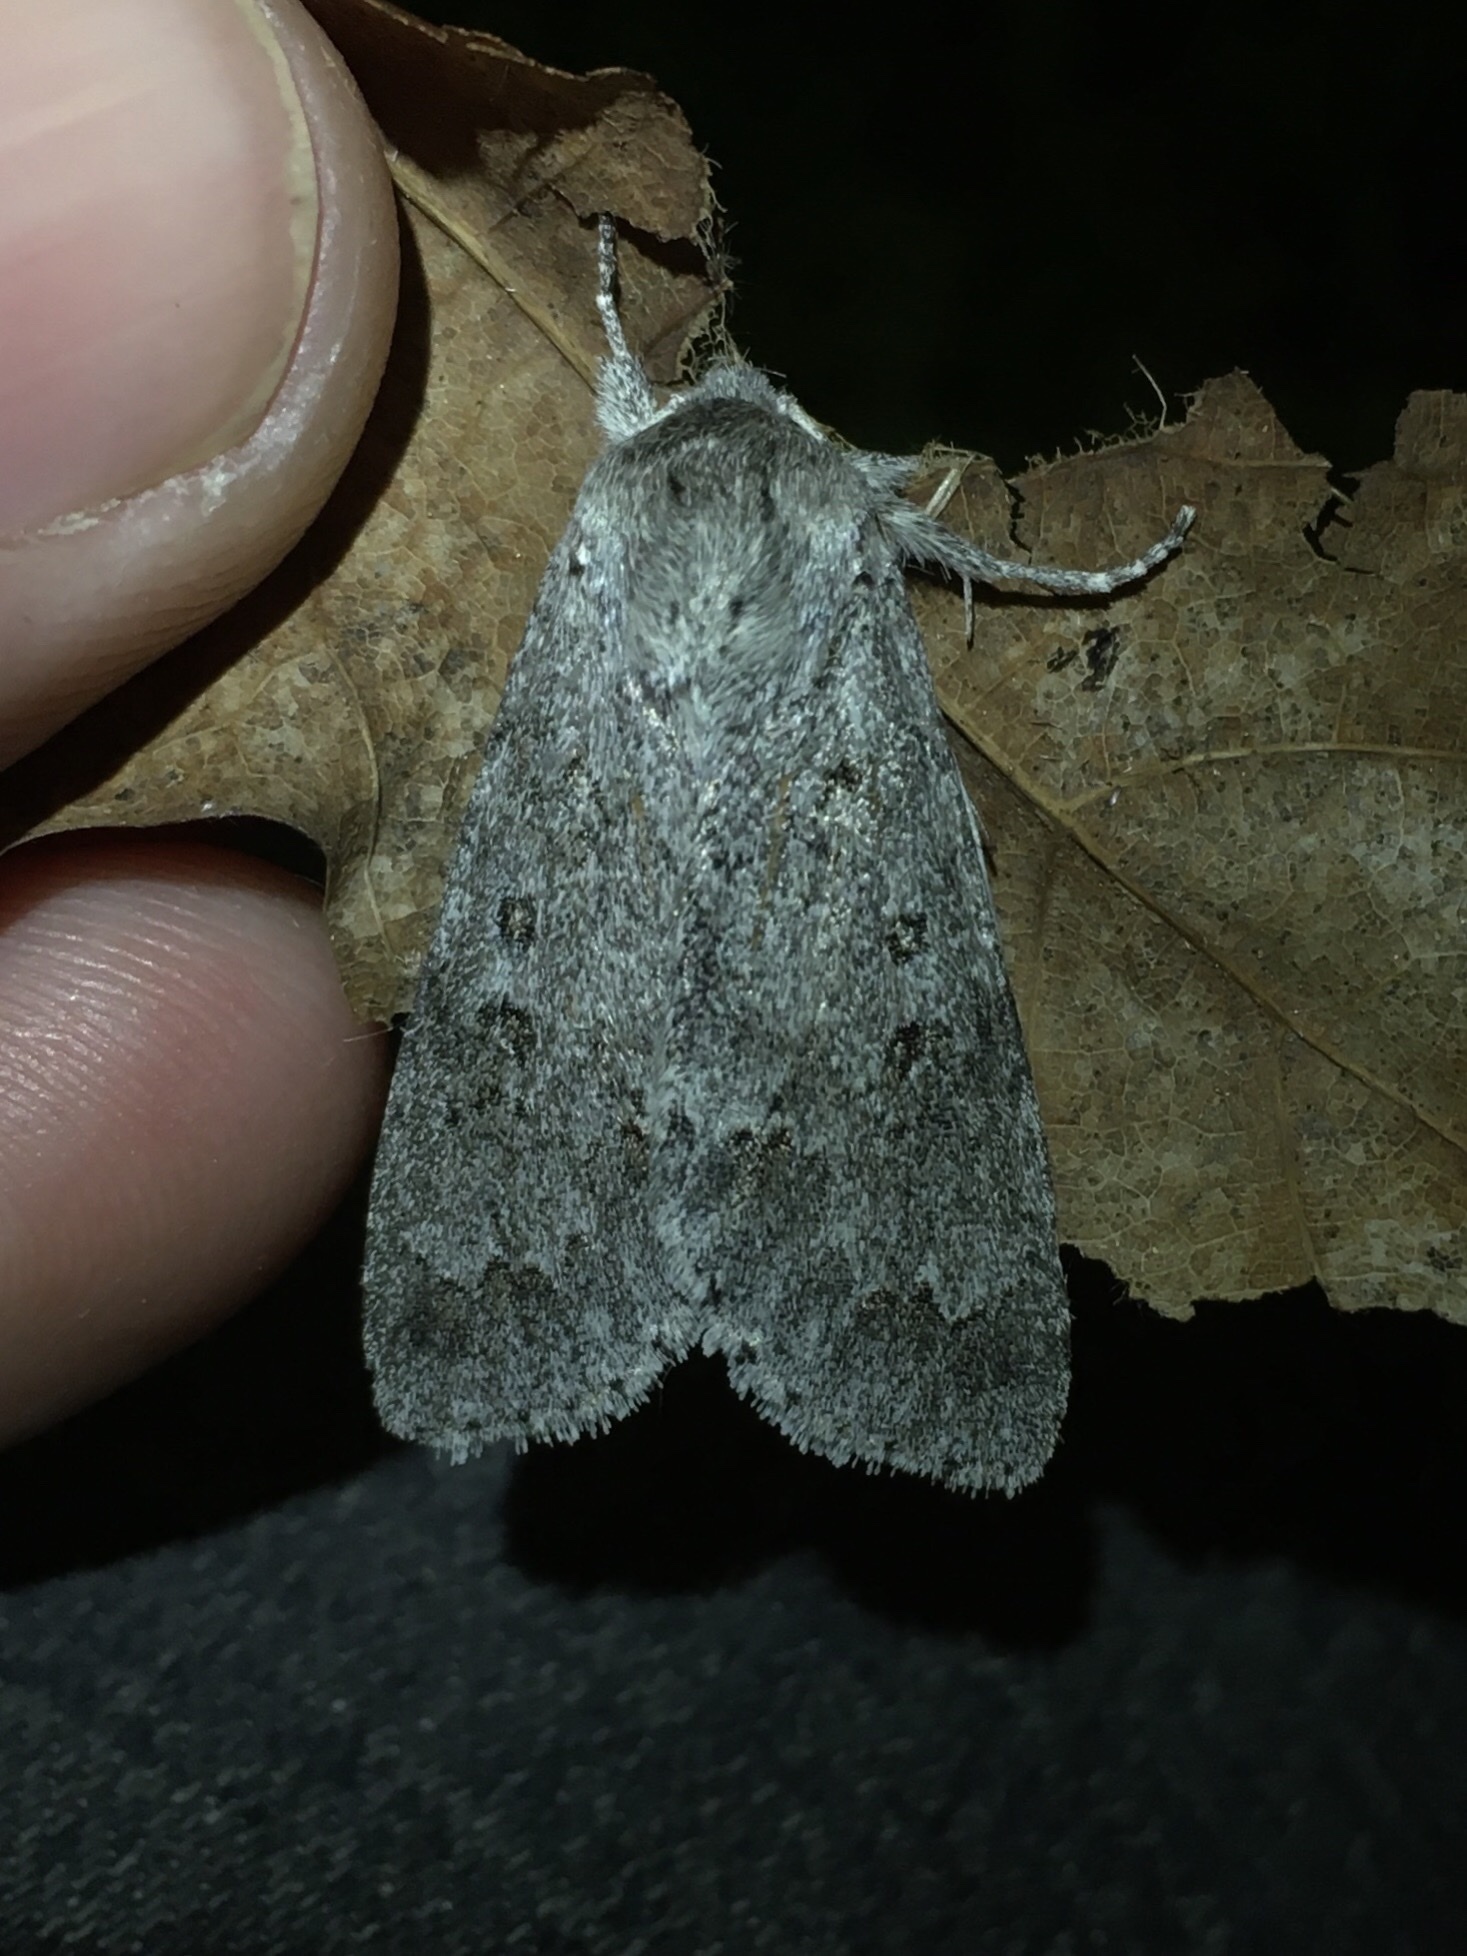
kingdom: Animalia
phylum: Arthropoda
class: Insecta
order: Lepidoptera
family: Noctuidae
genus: Acronicta
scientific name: Acronicta insita
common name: Large gray dagger
